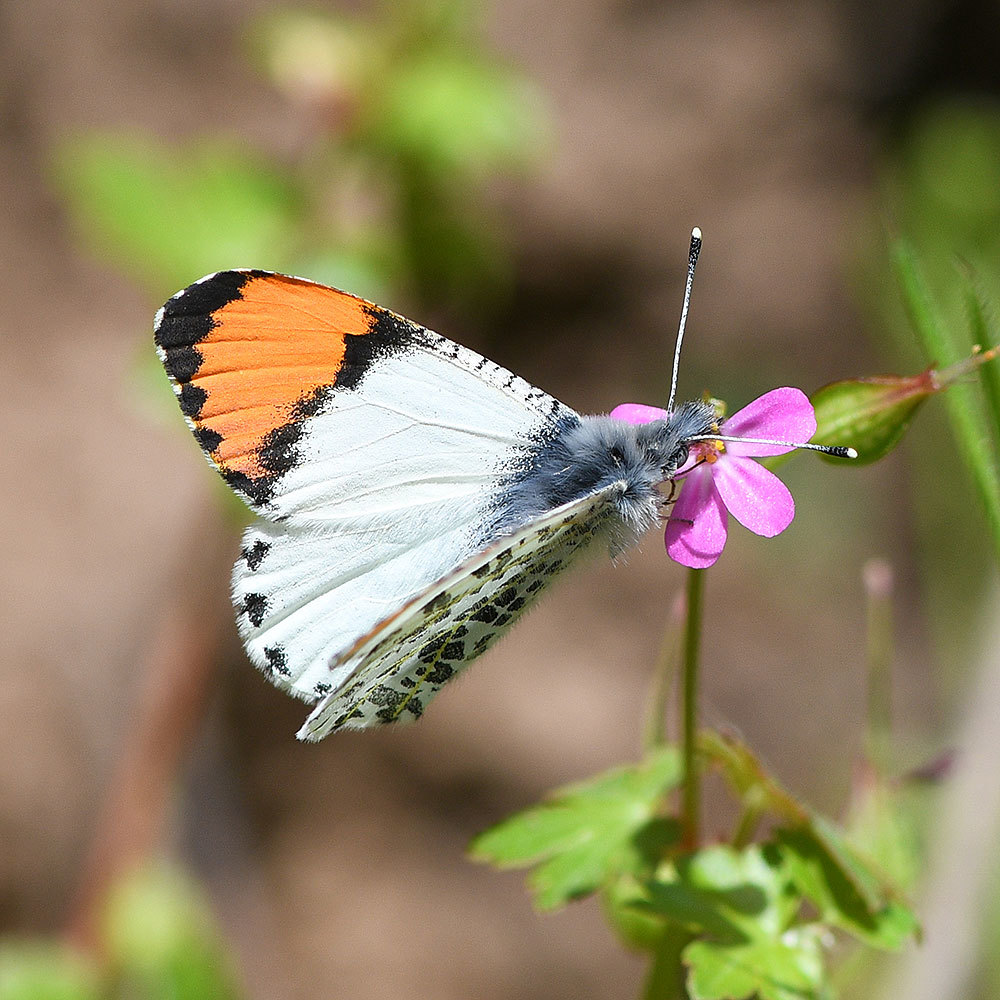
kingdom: Animalia
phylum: Arthropoda
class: Insecta
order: Lepidoptera
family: Pieridae
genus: Anthocharis
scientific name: Anthocharis julia
